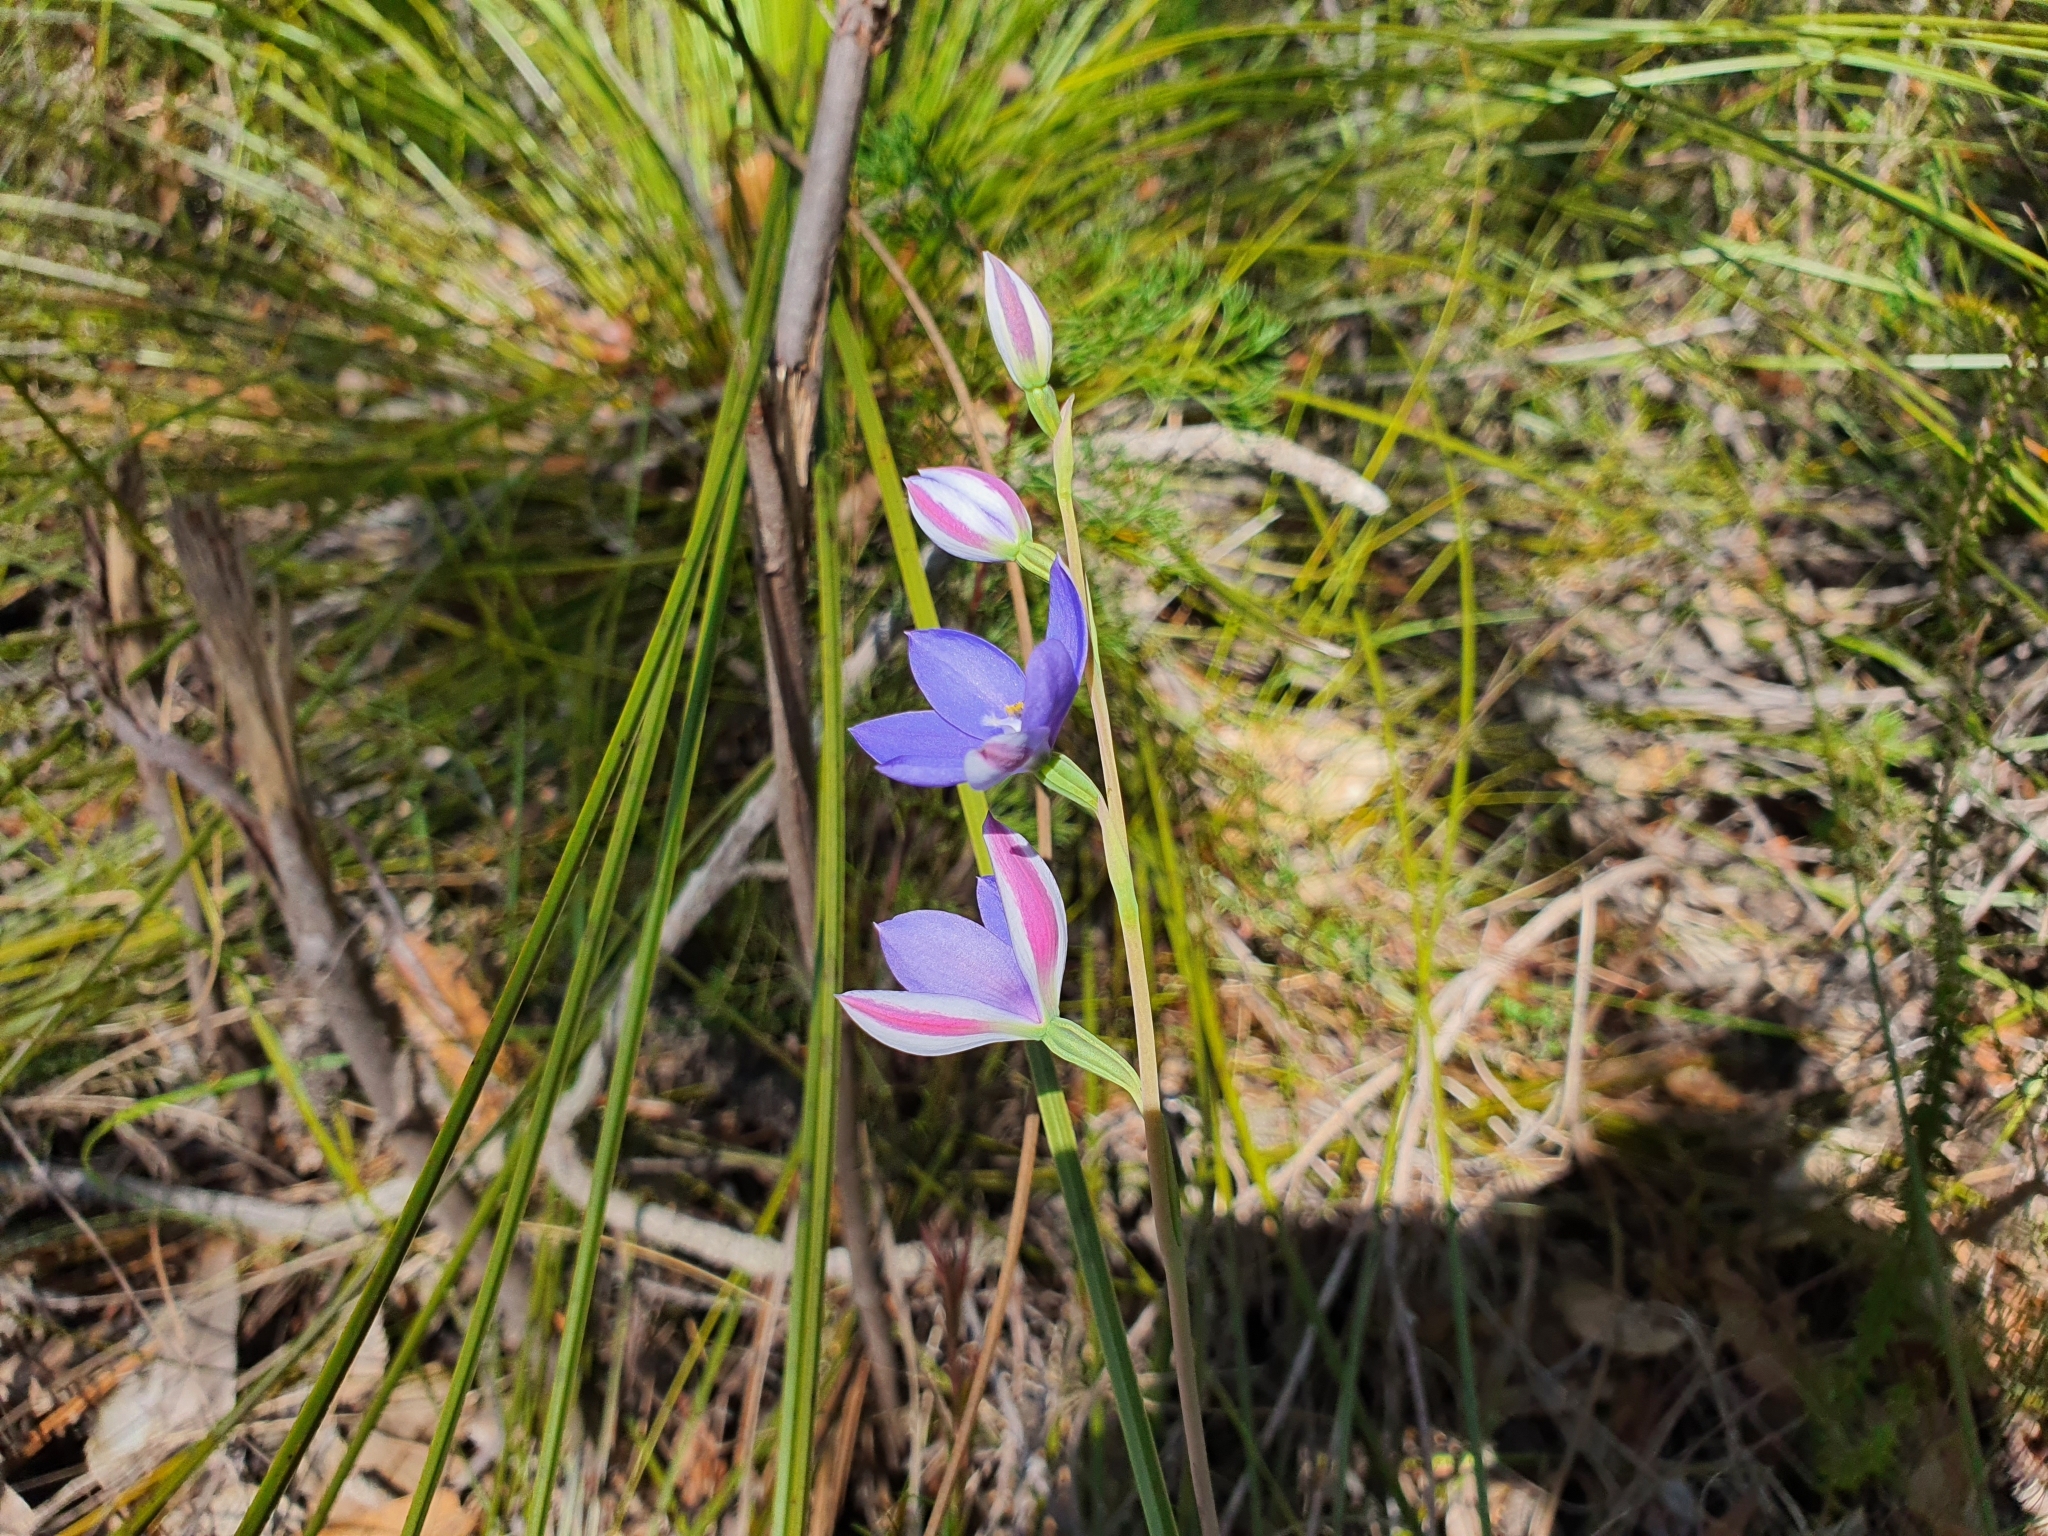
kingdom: Plantae
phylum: Tracheophyta
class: Liliopsida
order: Asparagales
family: Orchidaceae
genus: Thelymitra
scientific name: Thelymitra ixioides
